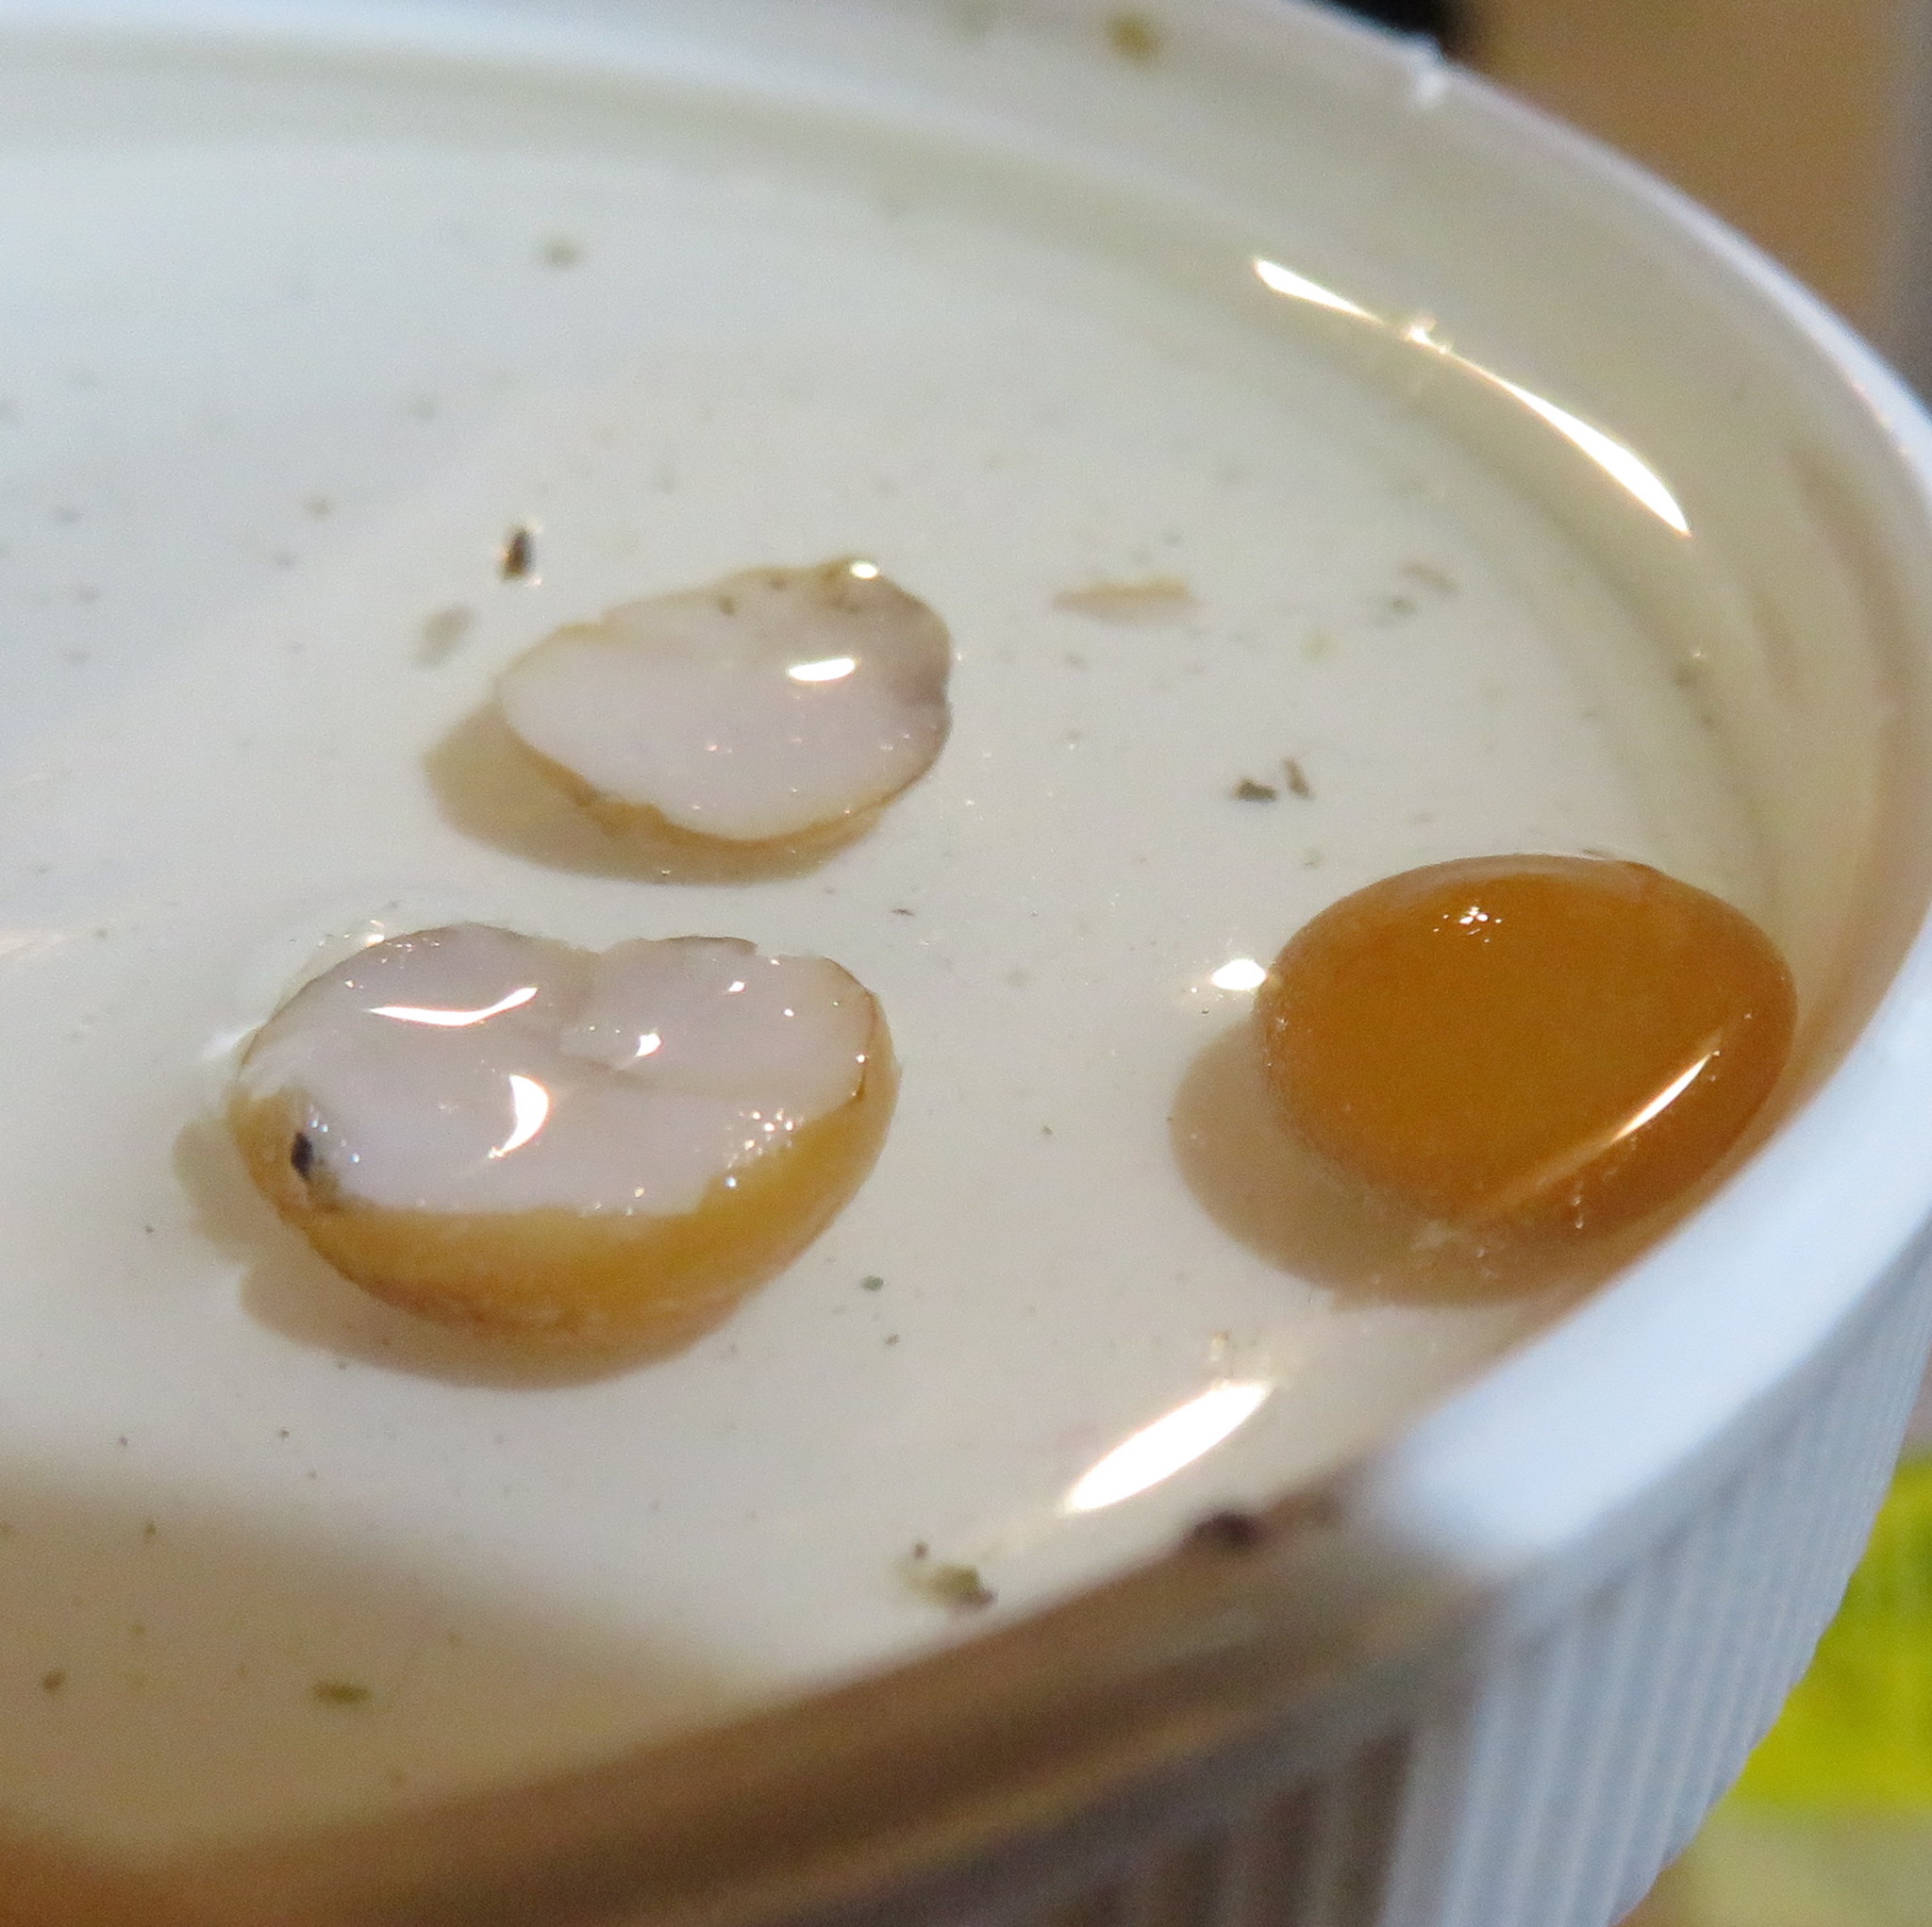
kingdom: Plantae
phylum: Tracheophyta
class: Liliopsida
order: Asparagales
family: Asparagaceae
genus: Dracaena
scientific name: Dracaena draco
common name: Canary island dragon tree
